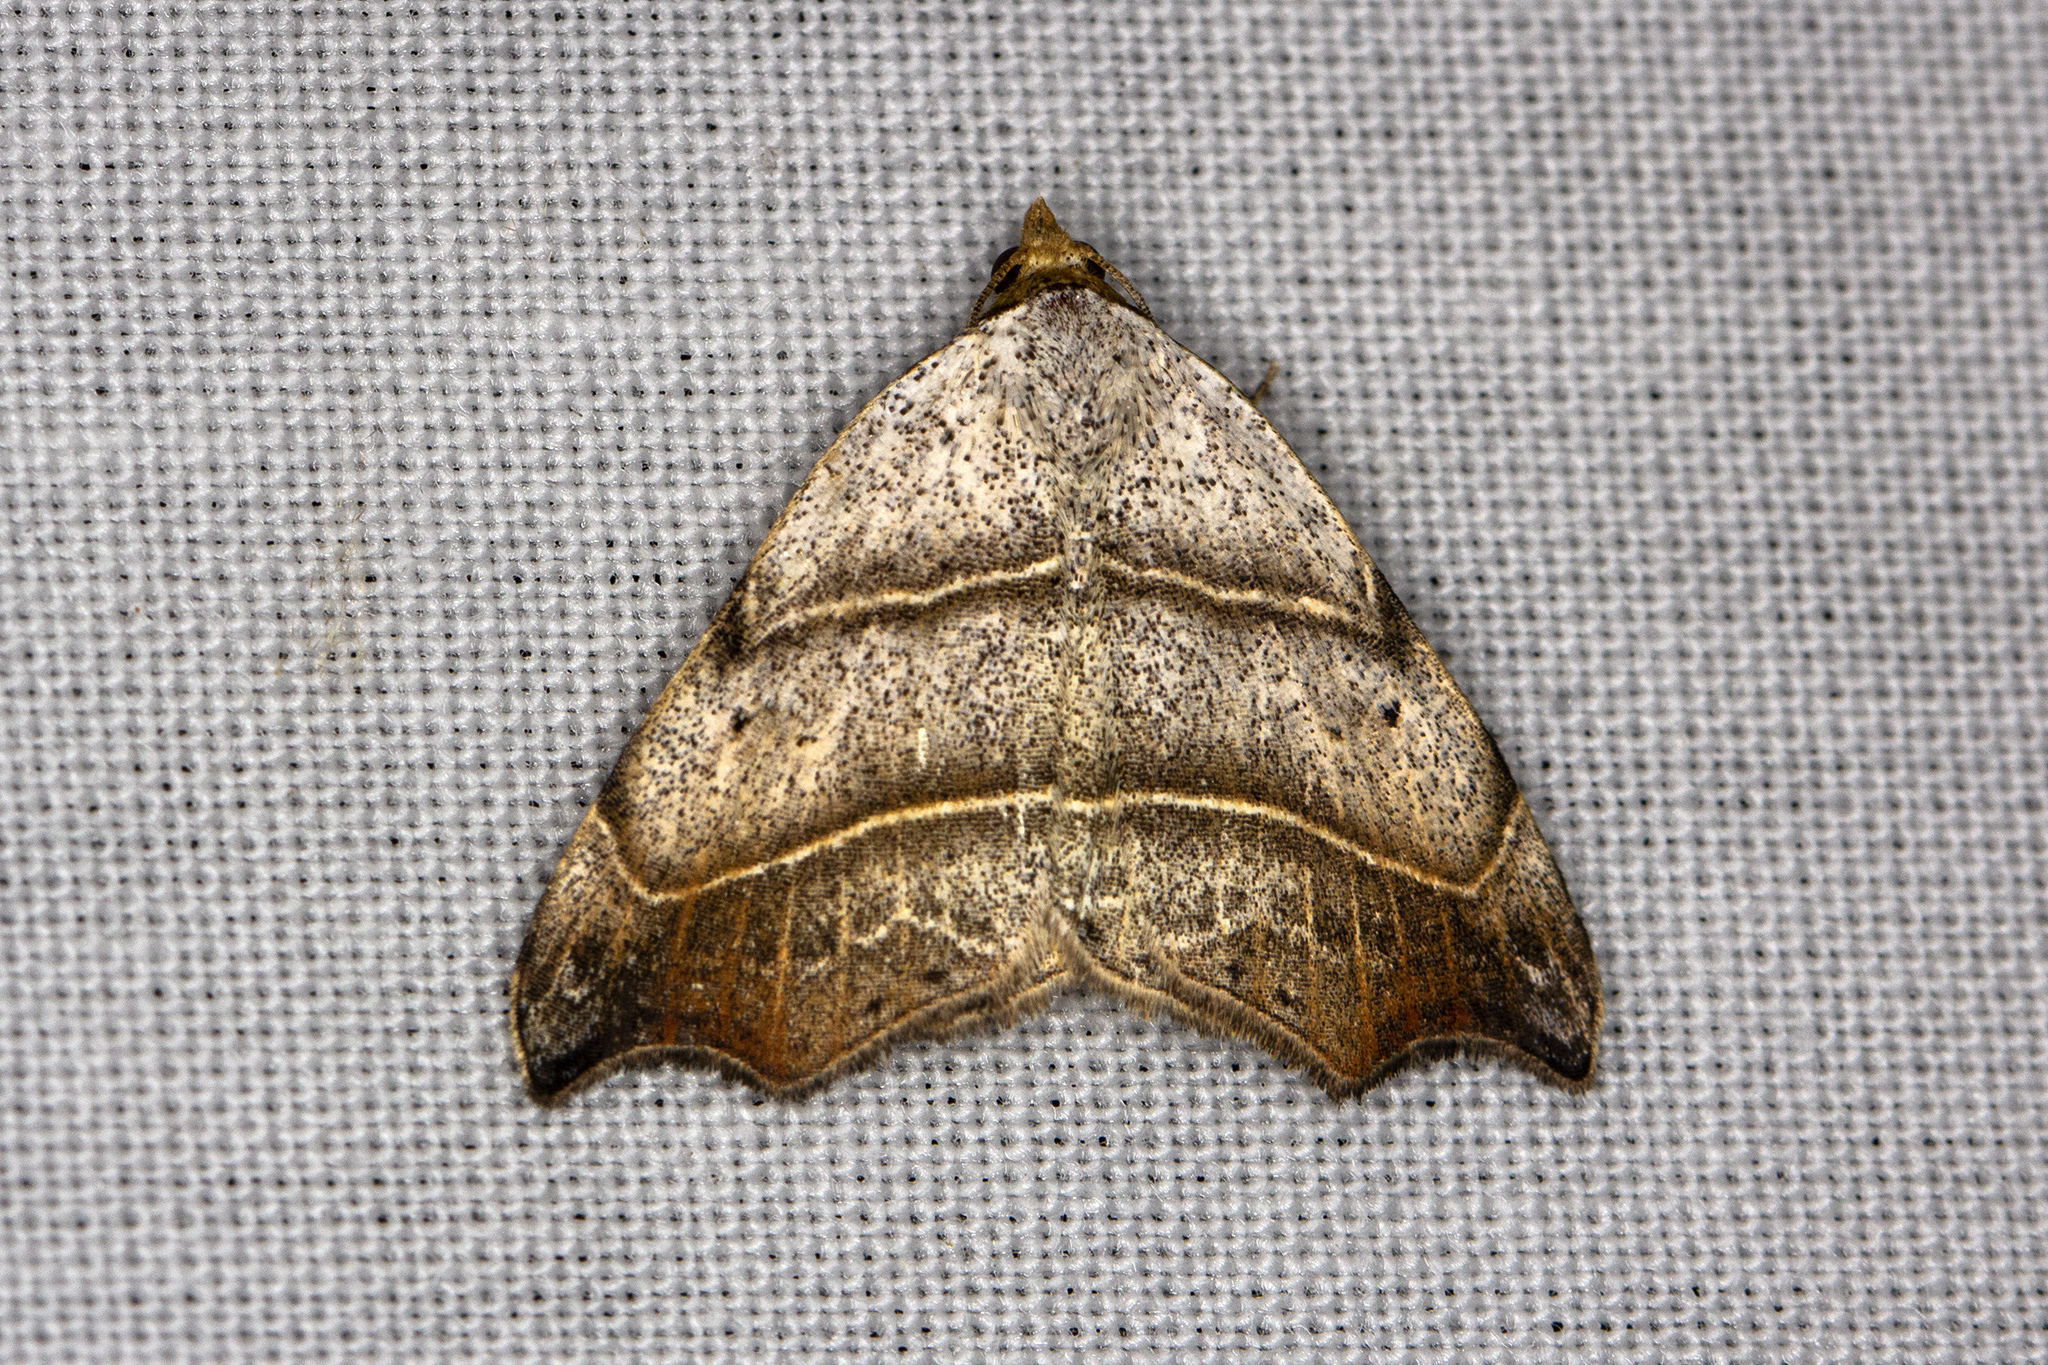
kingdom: Animalia
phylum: Arthropoda
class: Insecta
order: Lepidoptera
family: Erebidae
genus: Laspeyria
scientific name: Laspeyria flexula
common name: Beautiful hook-tip
